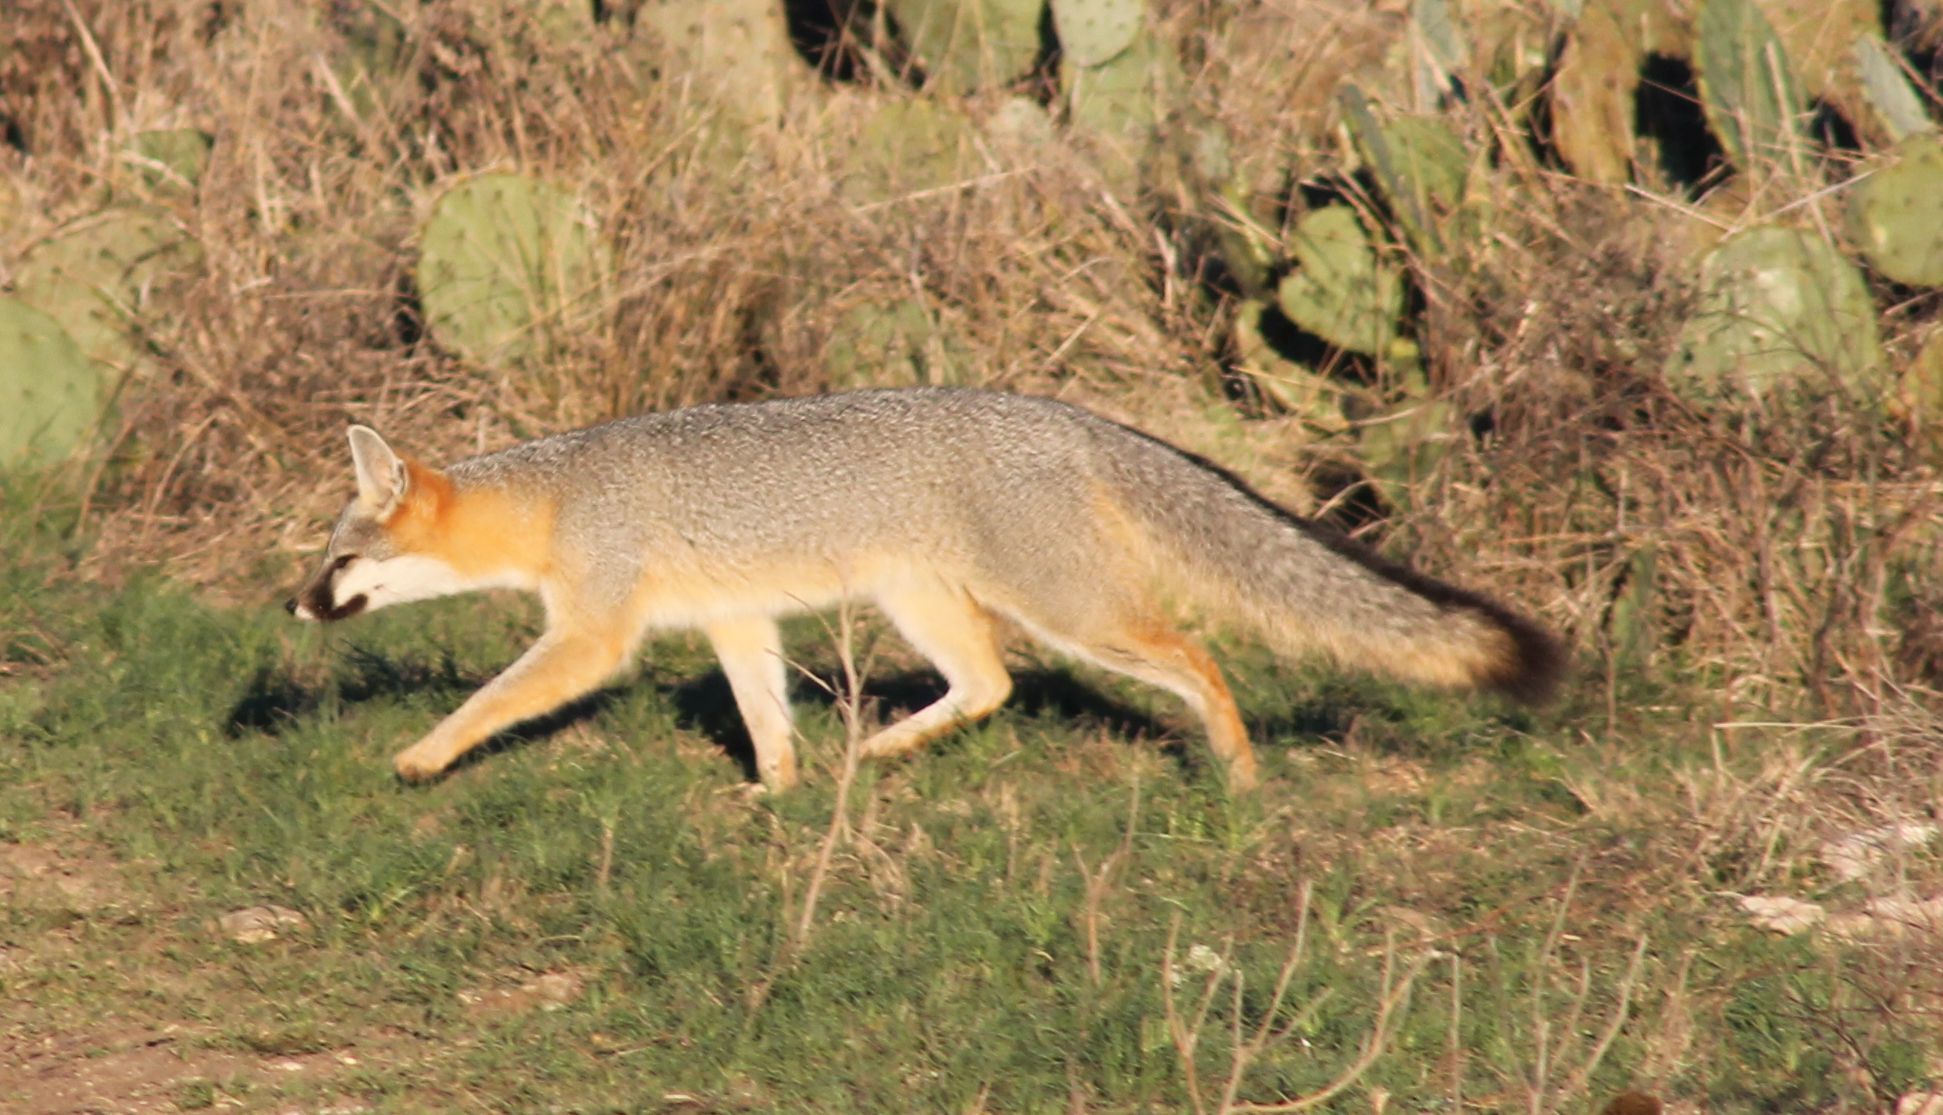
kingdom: Animalia
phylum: Chordata
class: Mammalia
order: Carnivora
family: Canidae
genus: Urocyon
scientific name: Urocyon cinereoargenteus
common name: Gray fox
